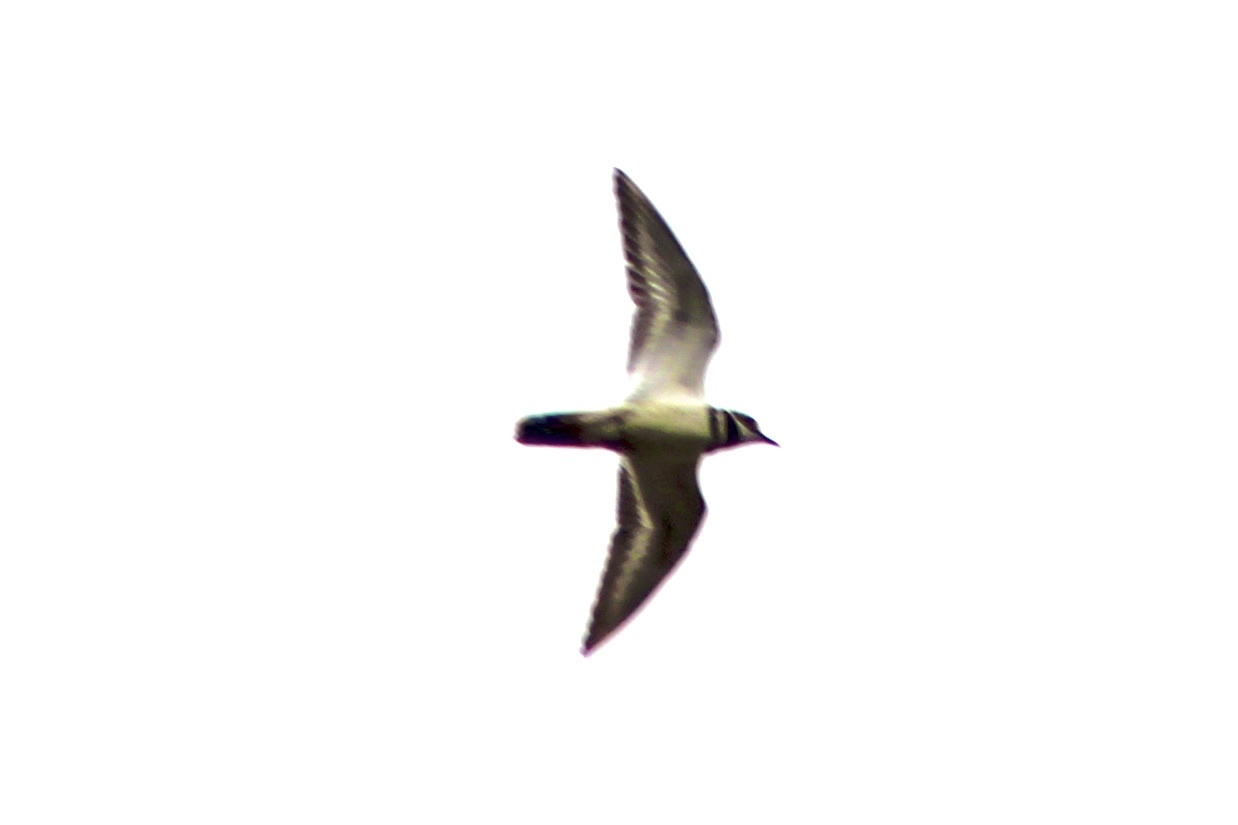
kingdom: Animalia
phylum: Chordata
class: Aves
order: Charadriiformes
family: Charadriidae
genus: Charadrius
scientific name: Charadrius vociferus
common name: Killdeer
